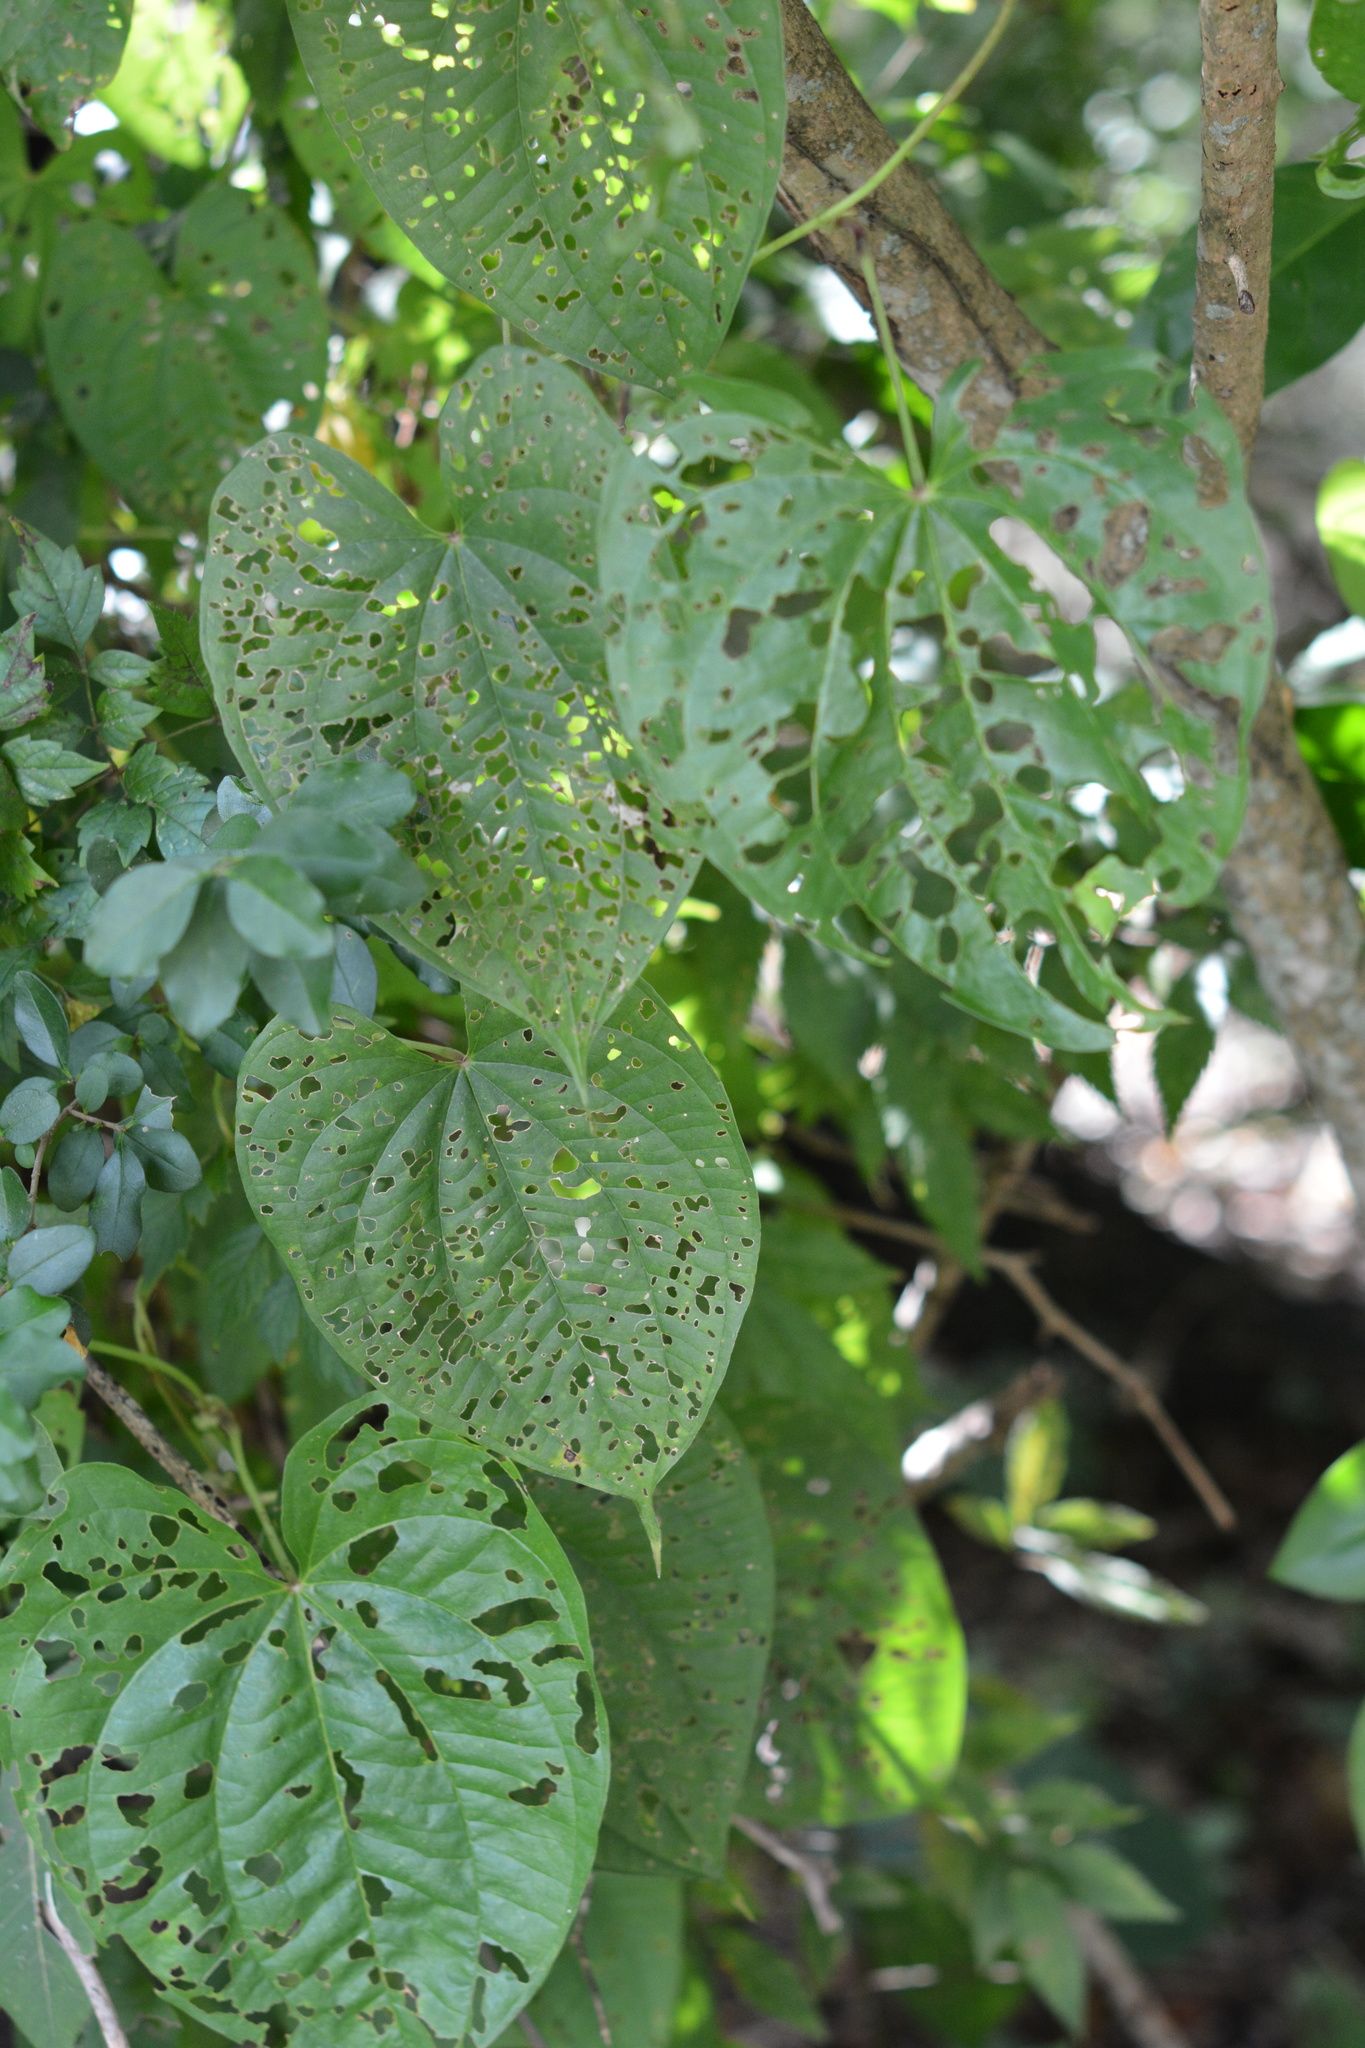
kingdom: Plantae
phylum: Tracheophyta
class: Liliopsida
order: Dioscoreales
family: Dioscoreaceae
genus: Dioscorea
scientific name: Dioscorea bulbifera
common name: Air yam
